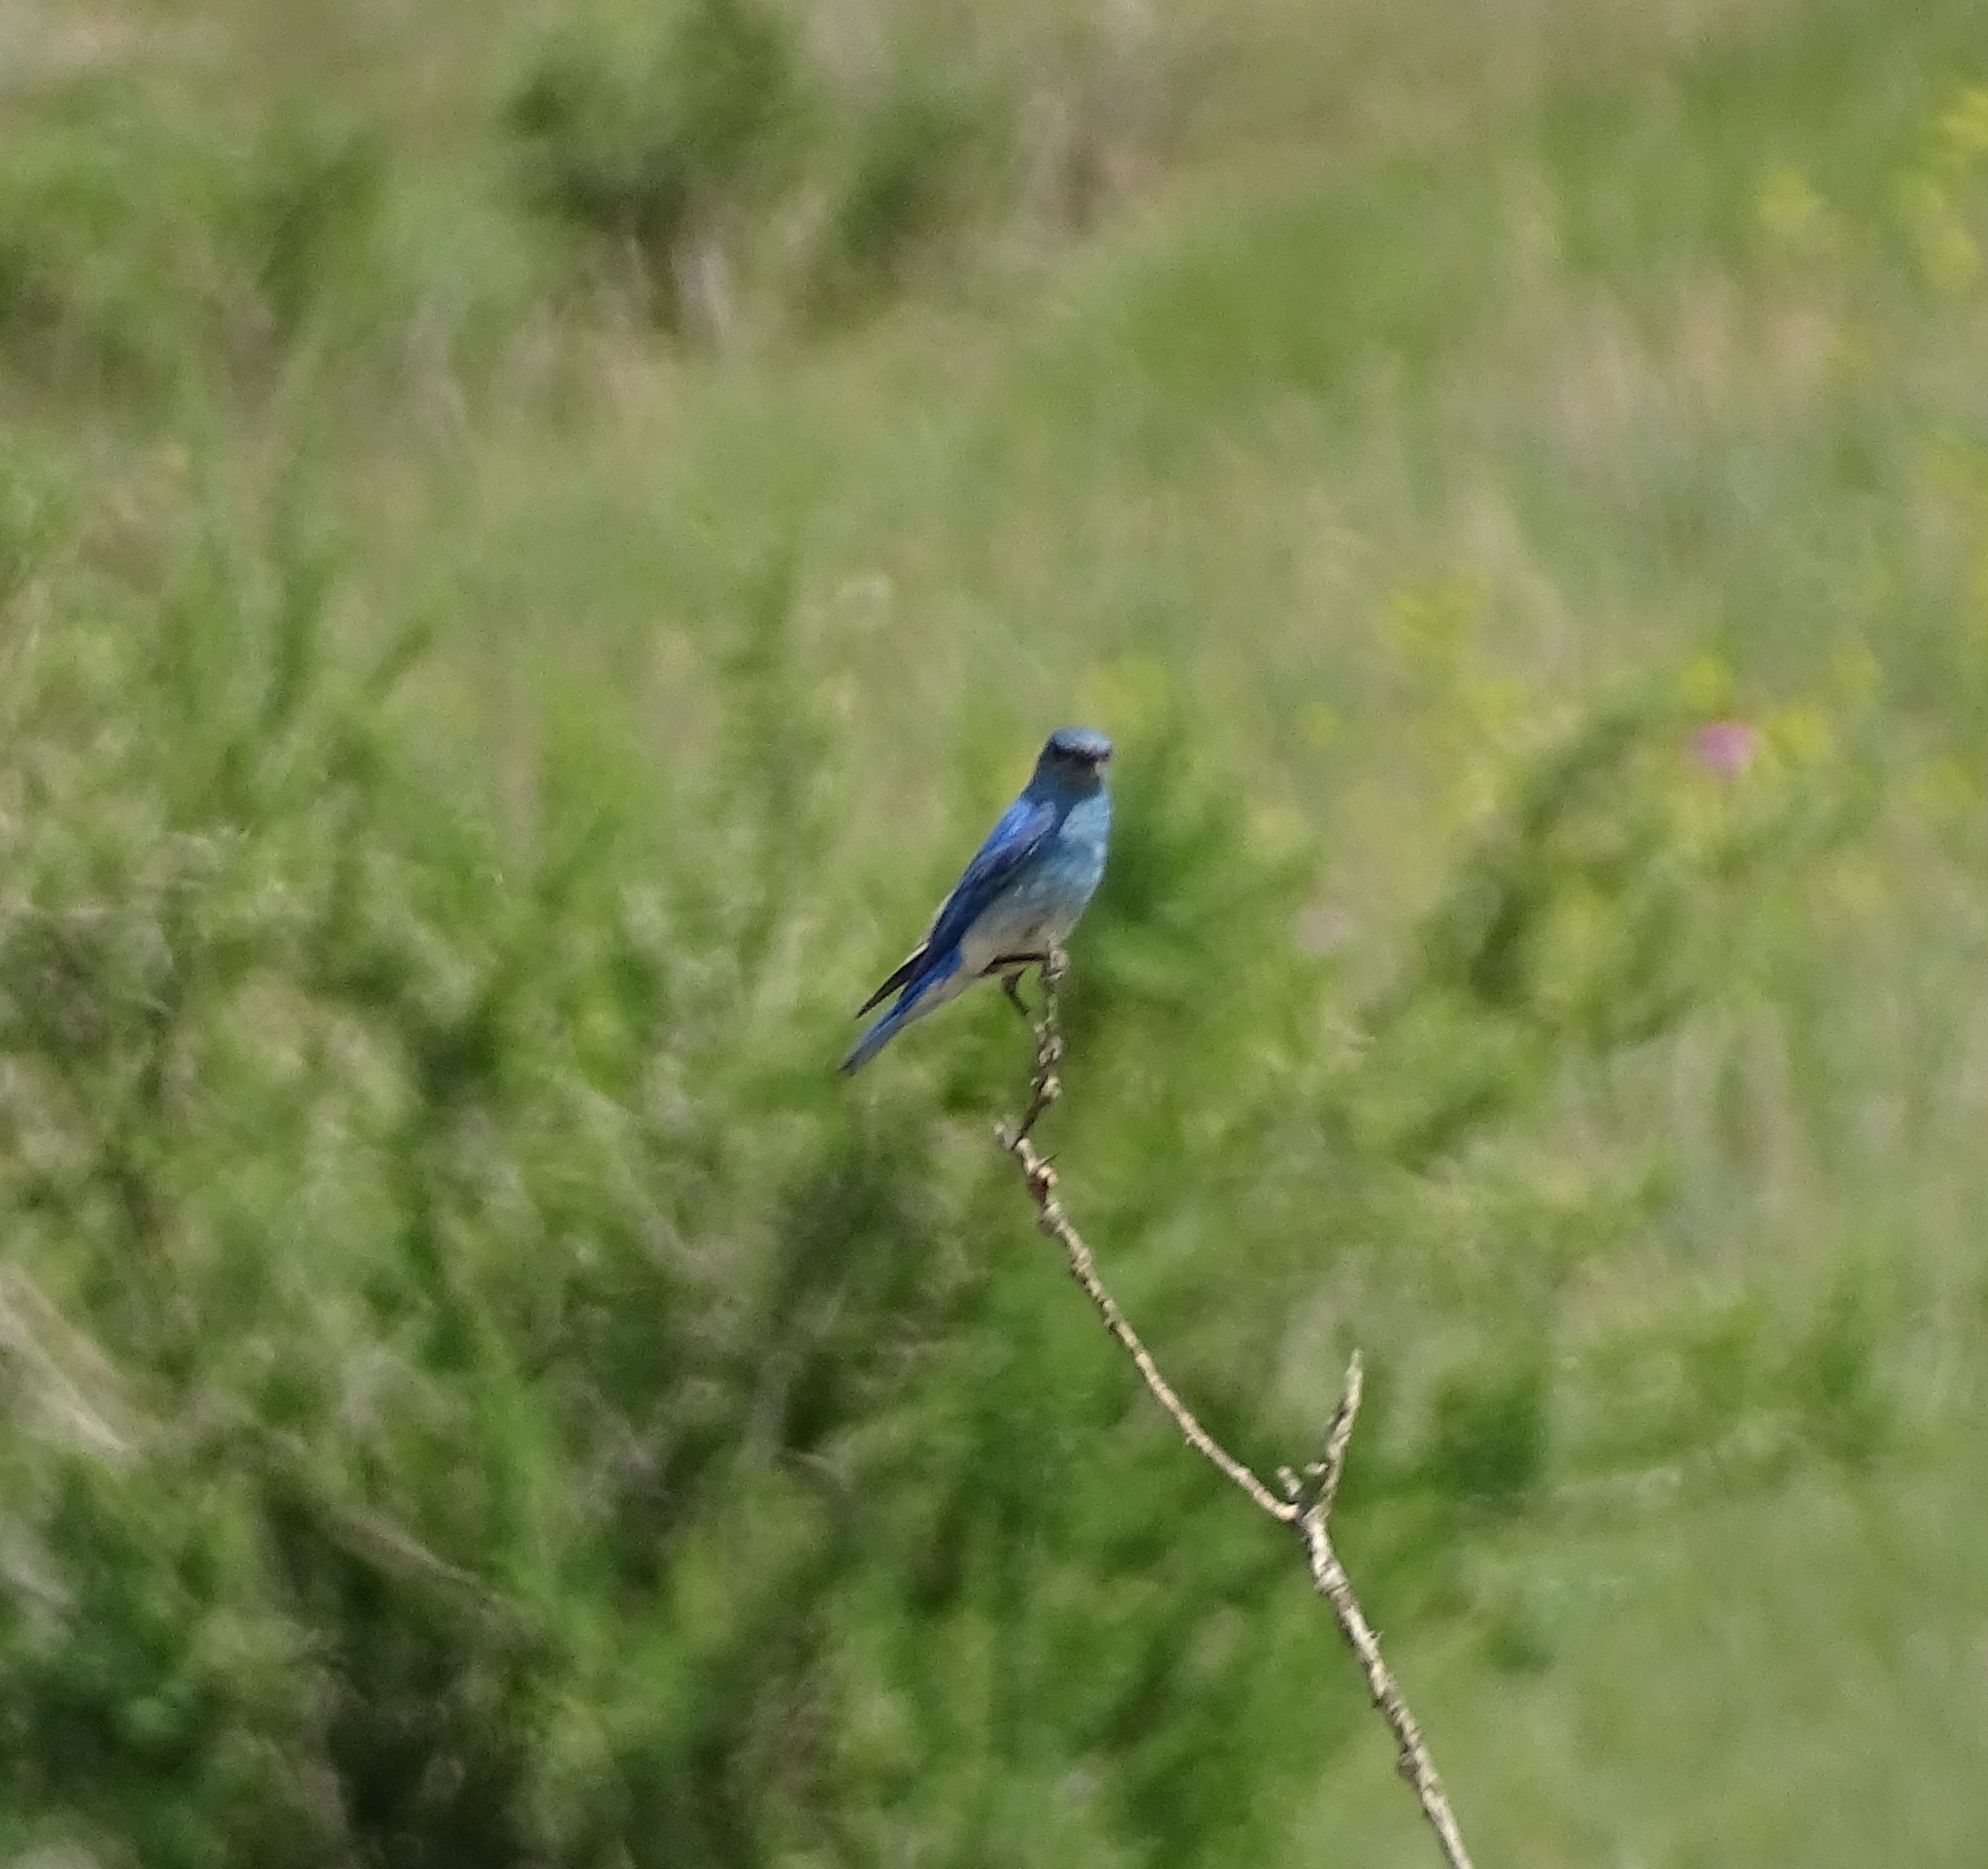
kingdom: Animalia
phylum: Chordata
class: Aves
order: Passeriformes
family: Turdidae
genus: Sialia
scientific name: Sialia currucoides
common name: Mountain bluebird
